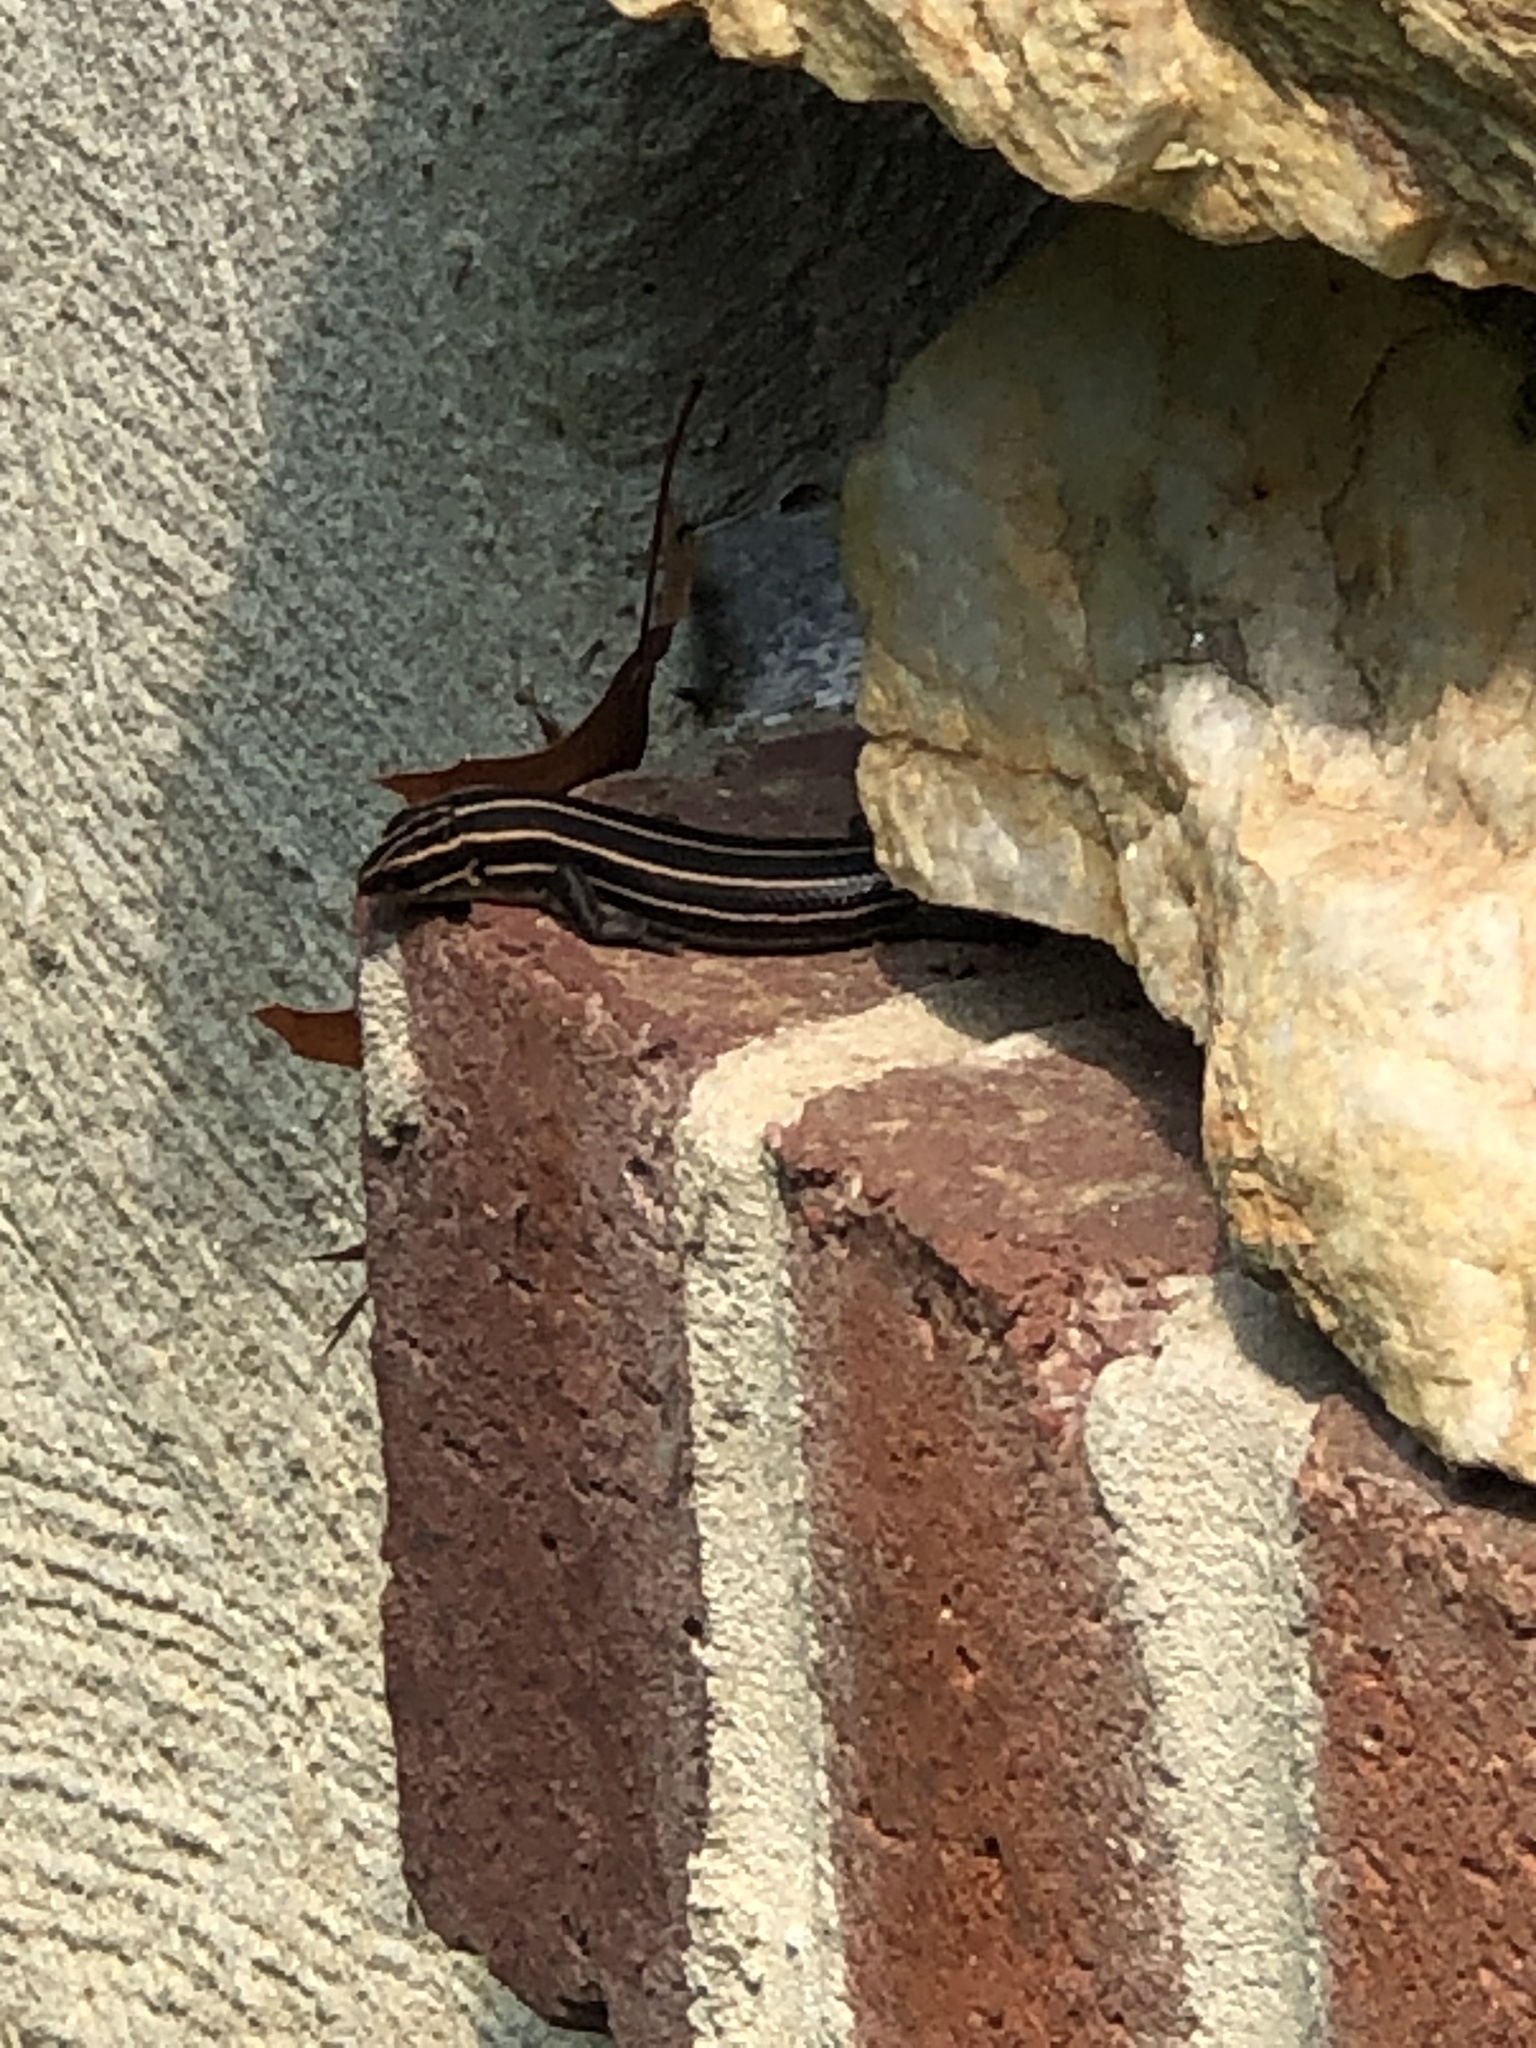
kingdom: Animalia
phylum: Chordata
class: Squamata
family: Scincidae
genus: Plestiodon
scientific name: Plestiodon laticeps
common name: Broadhead skink
